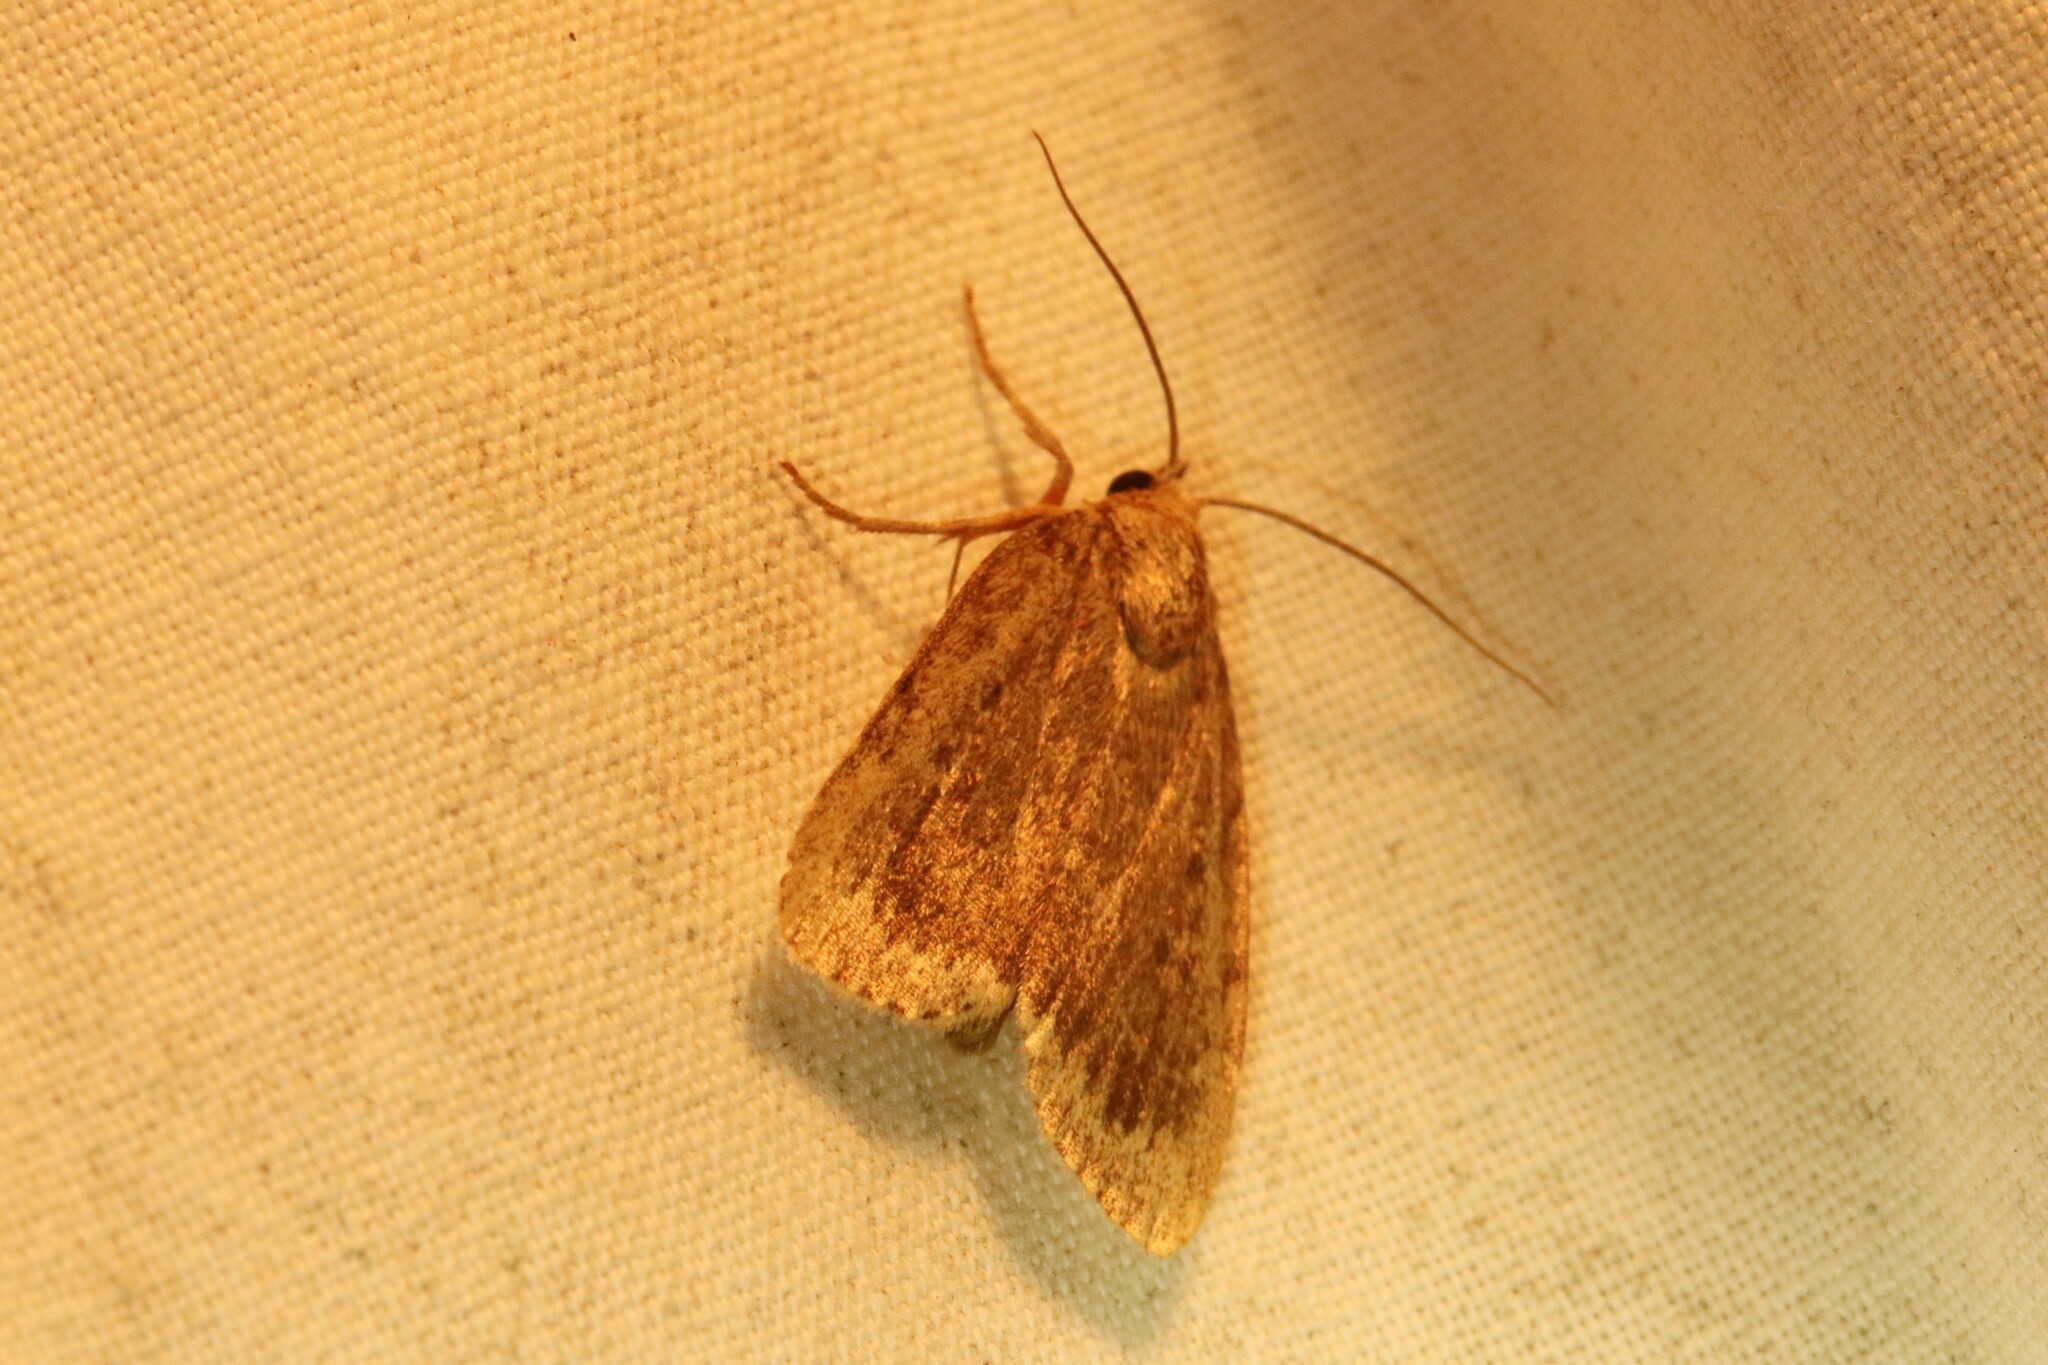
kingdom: Animalia
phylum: Arthropoda
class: Insecta
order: Lepidoptera
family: Noctuidae
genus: Amphipyra
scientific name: Amphipyra glabella
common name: Smooth amphipyra moth
